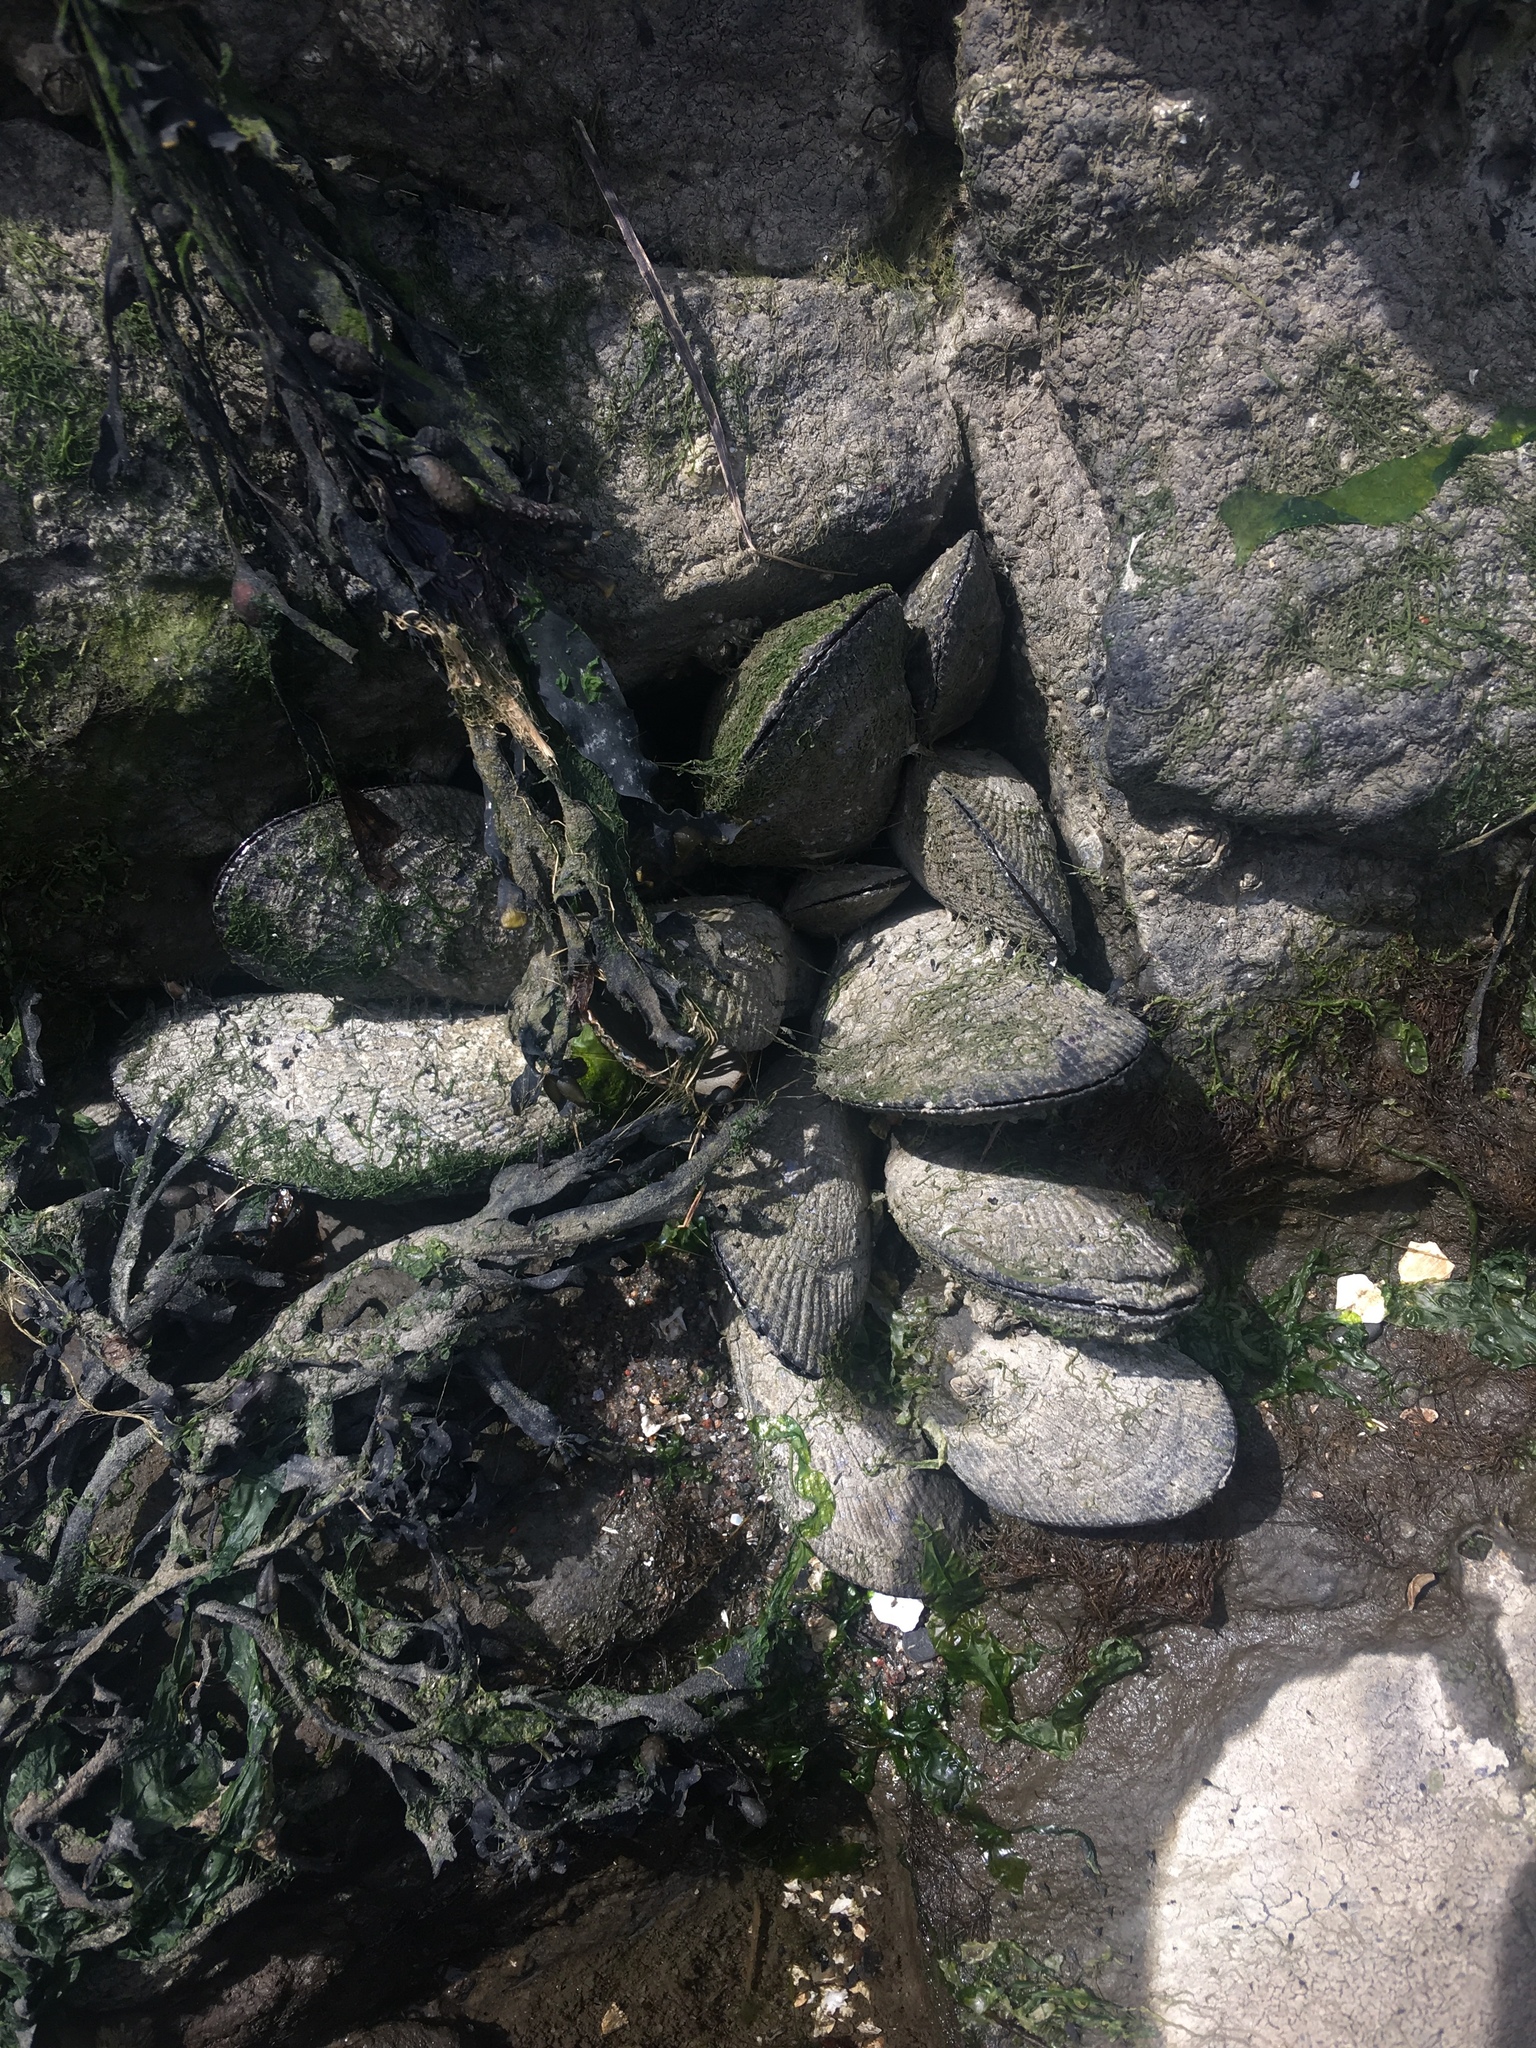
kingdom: Animalia
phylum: Mollusca
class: Bivalvia
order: Mytilida
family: Mytilidae
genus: Geukensia
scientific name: Geukensia demissa
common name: Ribbed mussel
